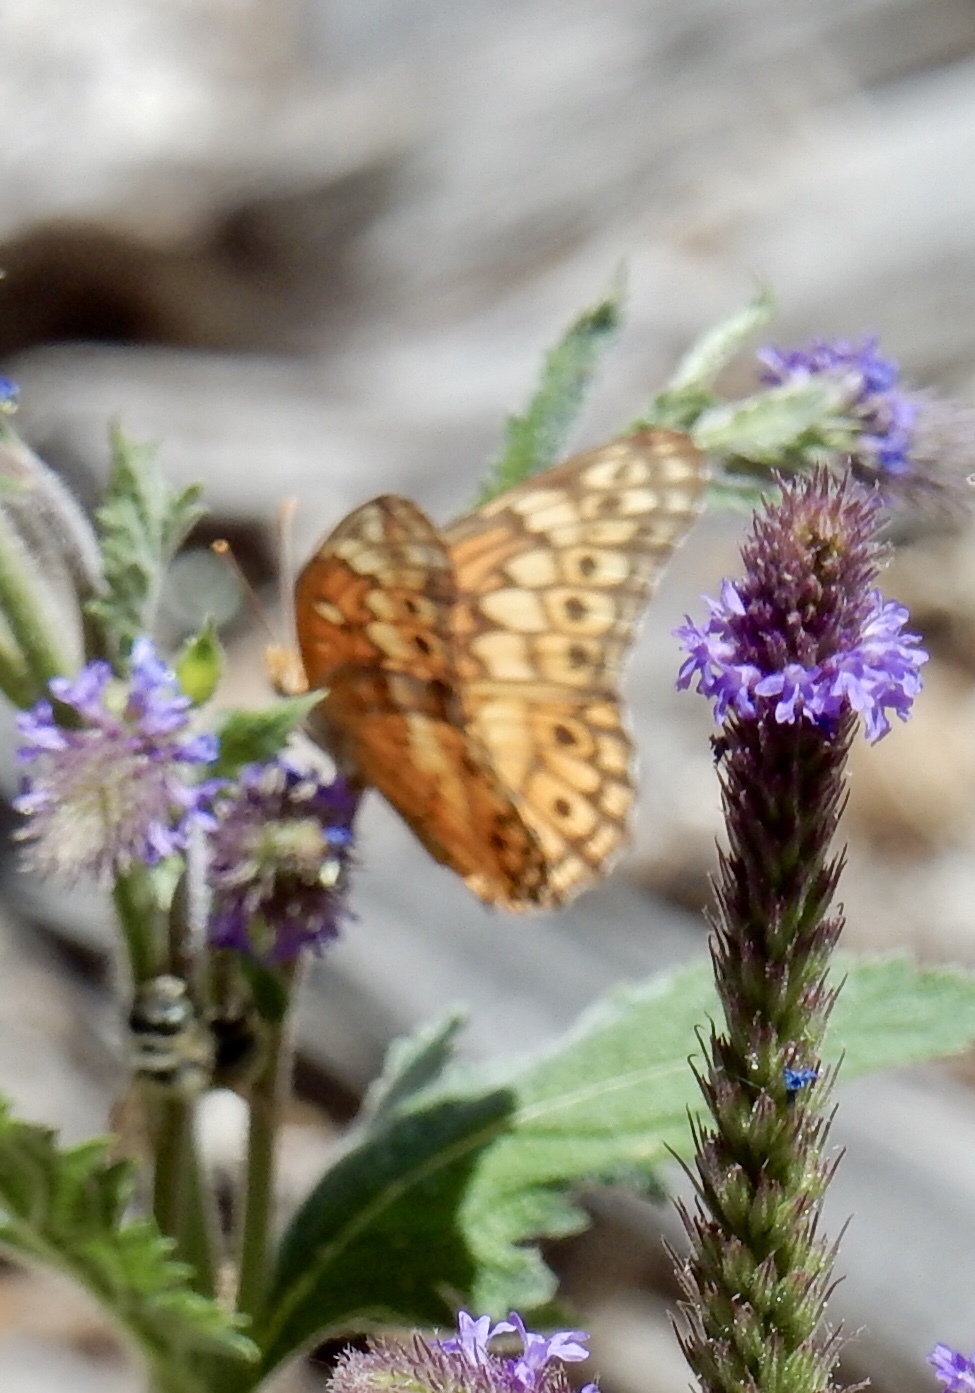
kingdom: Animalia
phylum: Arthropoda
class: Insecta
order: Lepidoptera
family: Nymphalidae
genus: Euptoieta
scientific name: Euptoieta claudia
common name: Variegated fritillary
